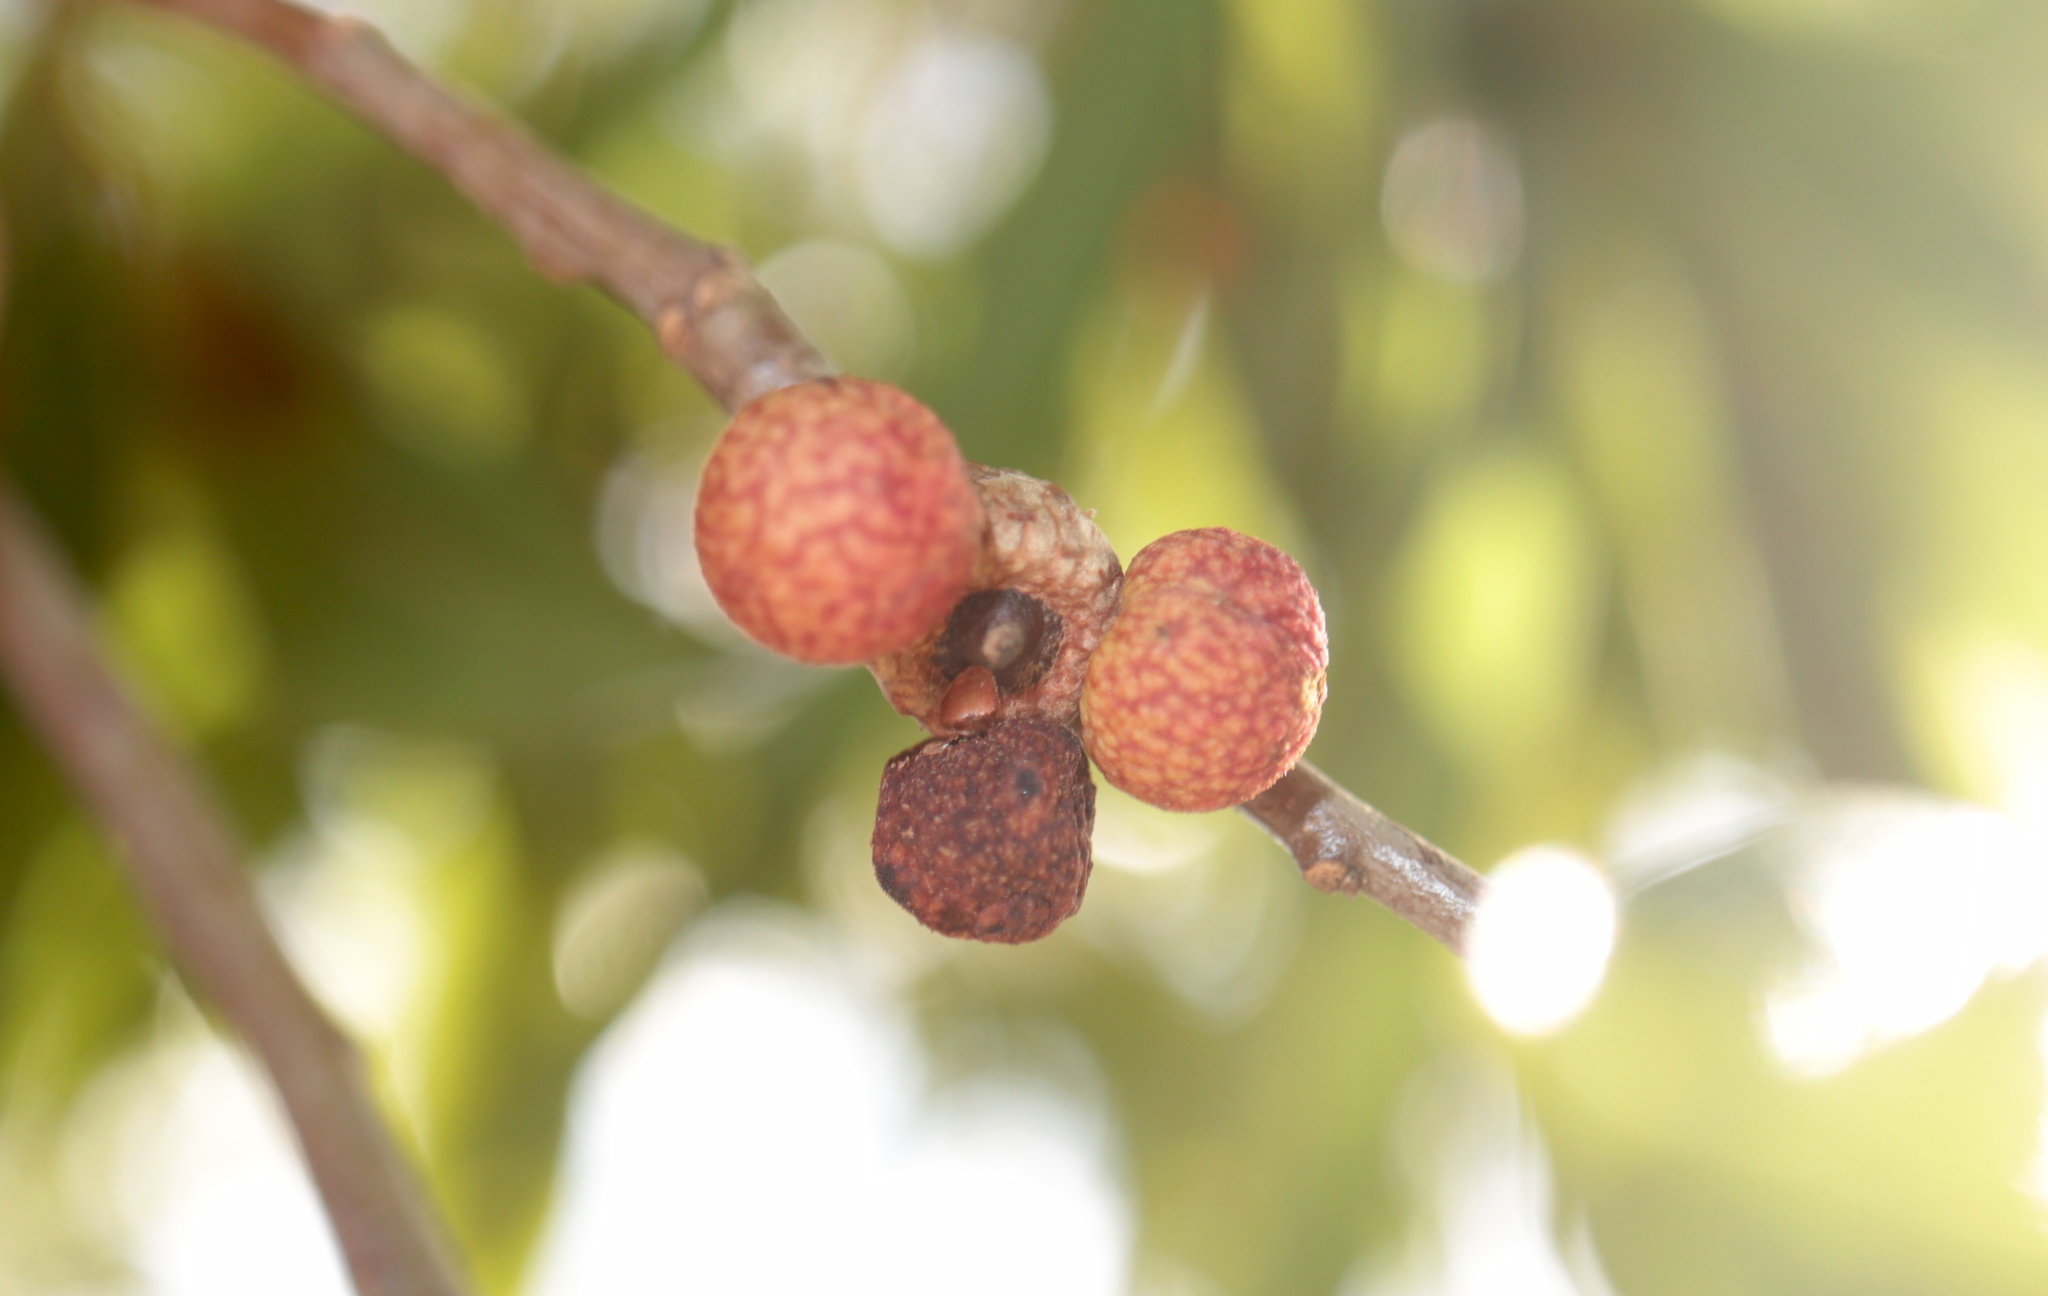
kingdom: Animalia
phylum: Arthropoda
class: Insecta
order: Hymenoptera
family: Cynipidae
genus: Amphibolips
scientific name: Amphibolips
